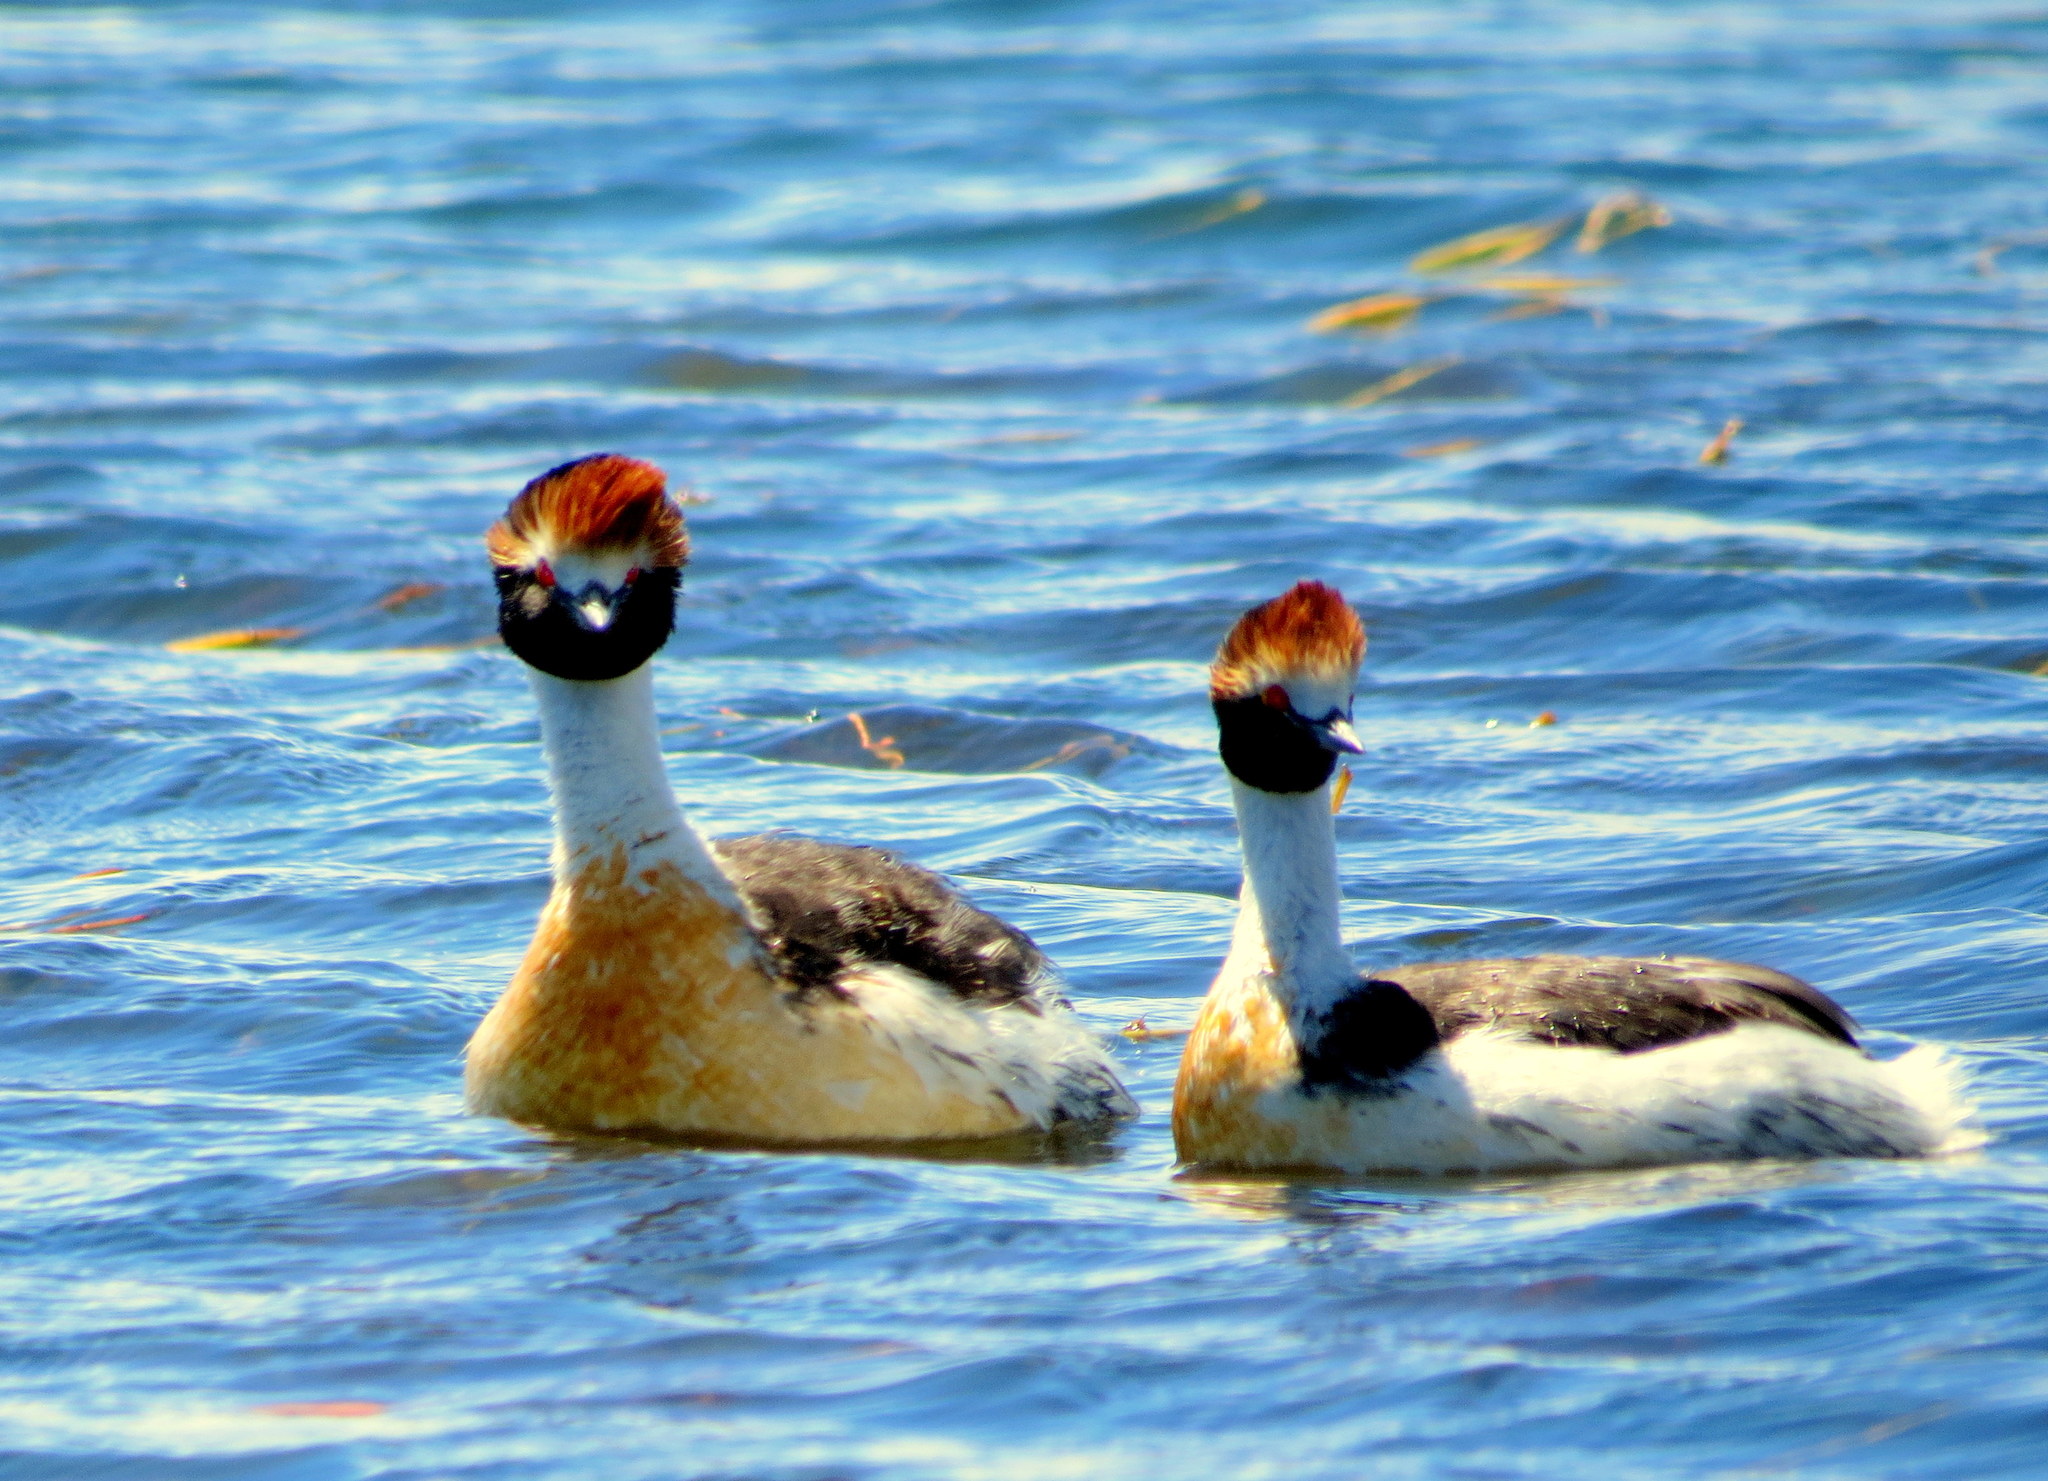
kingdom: Animalia
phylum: Chordata
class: Aves
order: Podicipediformes
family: Podicipedidae
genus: Podiceps
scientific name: Podiceps gallardoi
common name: Hooded grebe
